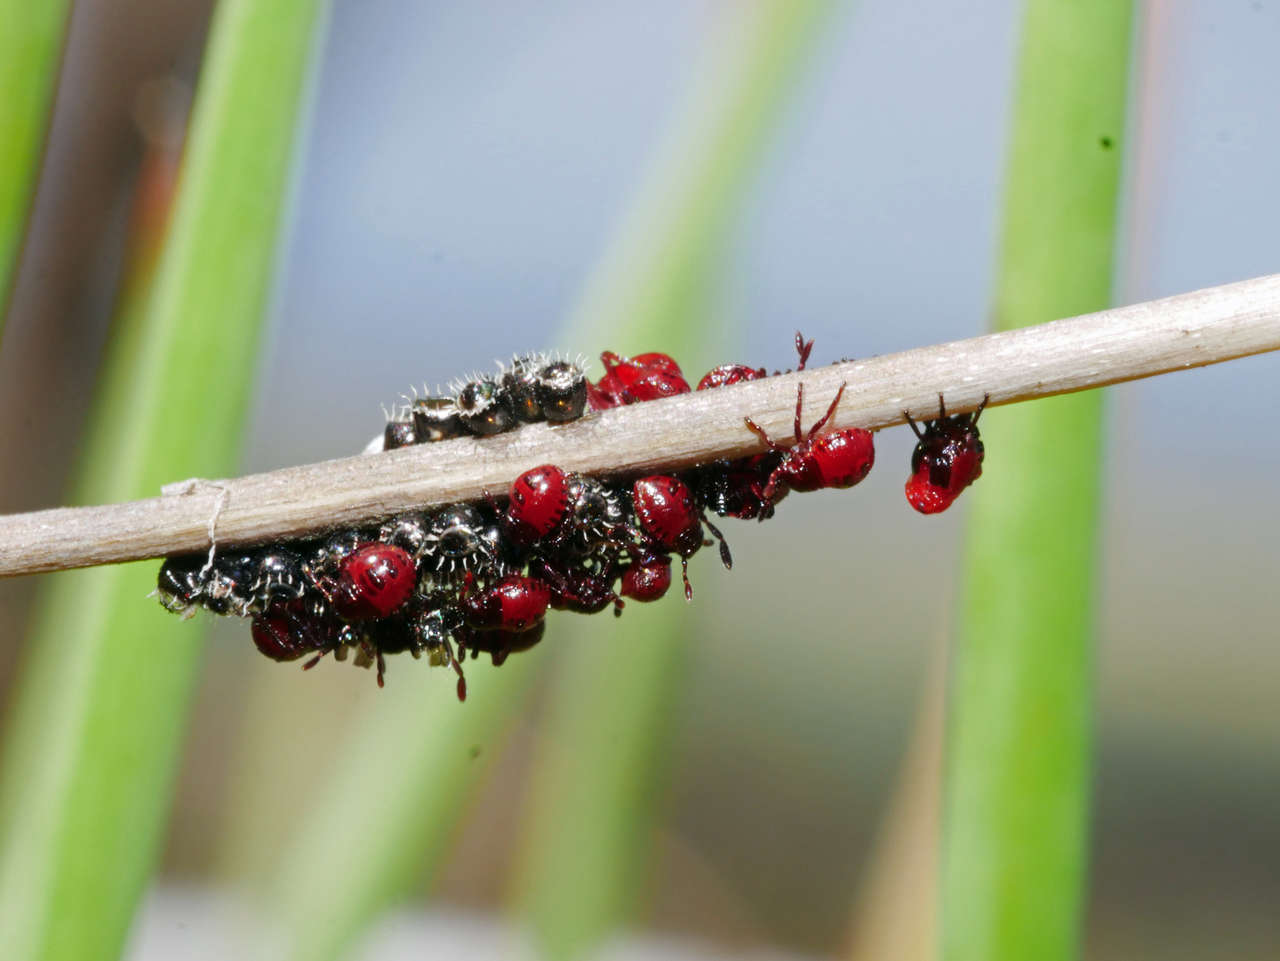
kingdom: Animalia
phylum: Arthropoda
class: Insecta
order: Hemiptera
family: Pentatomidae
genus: Oechalia
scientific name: Oechalia schellenbergii
